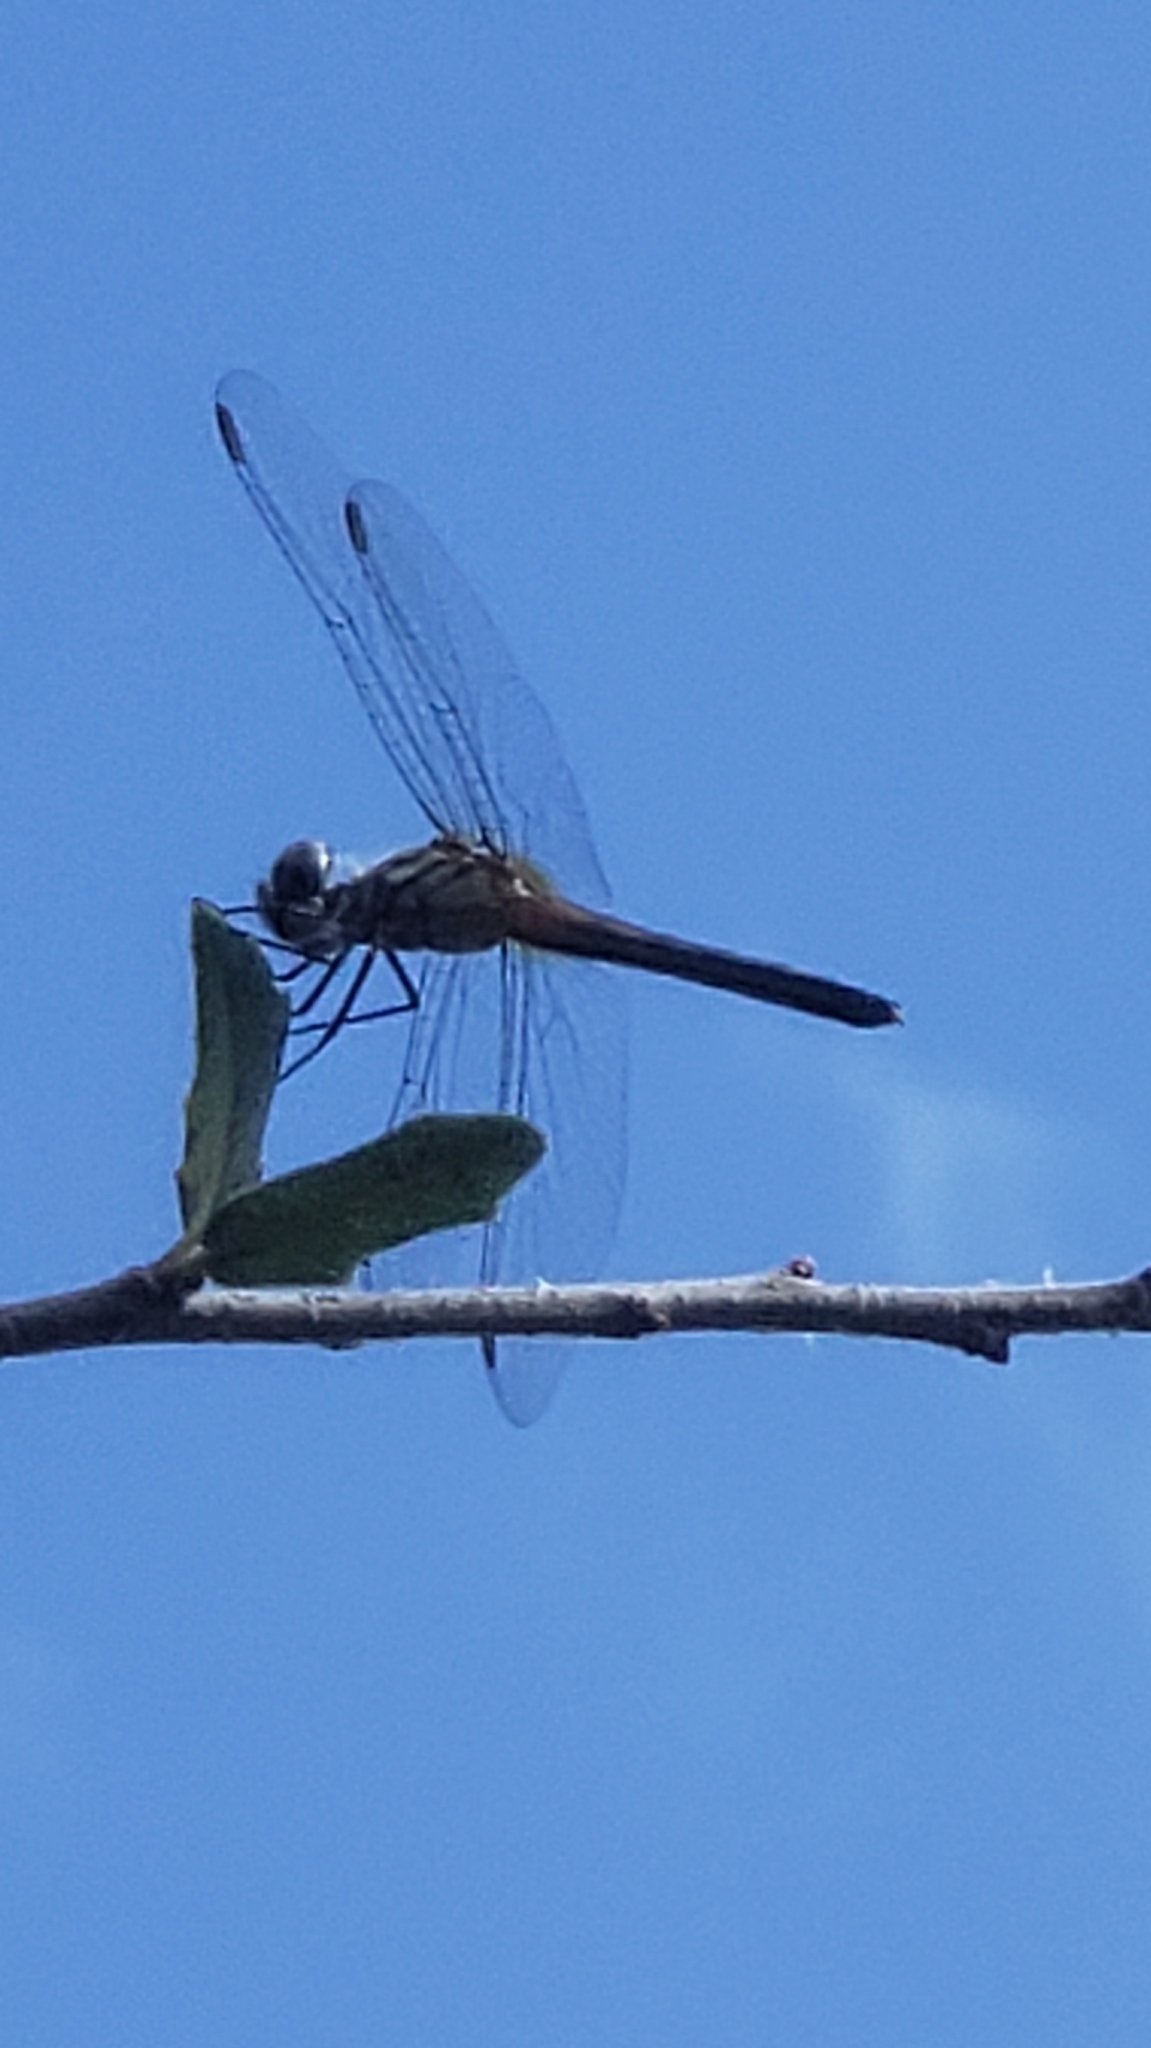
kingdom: Animalia
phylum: Arthropoda
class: Insecta
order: Odonata
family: Libellulidae
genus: Pachydiplax
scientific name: Pachydiplax longipennis
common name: Blue dasher
